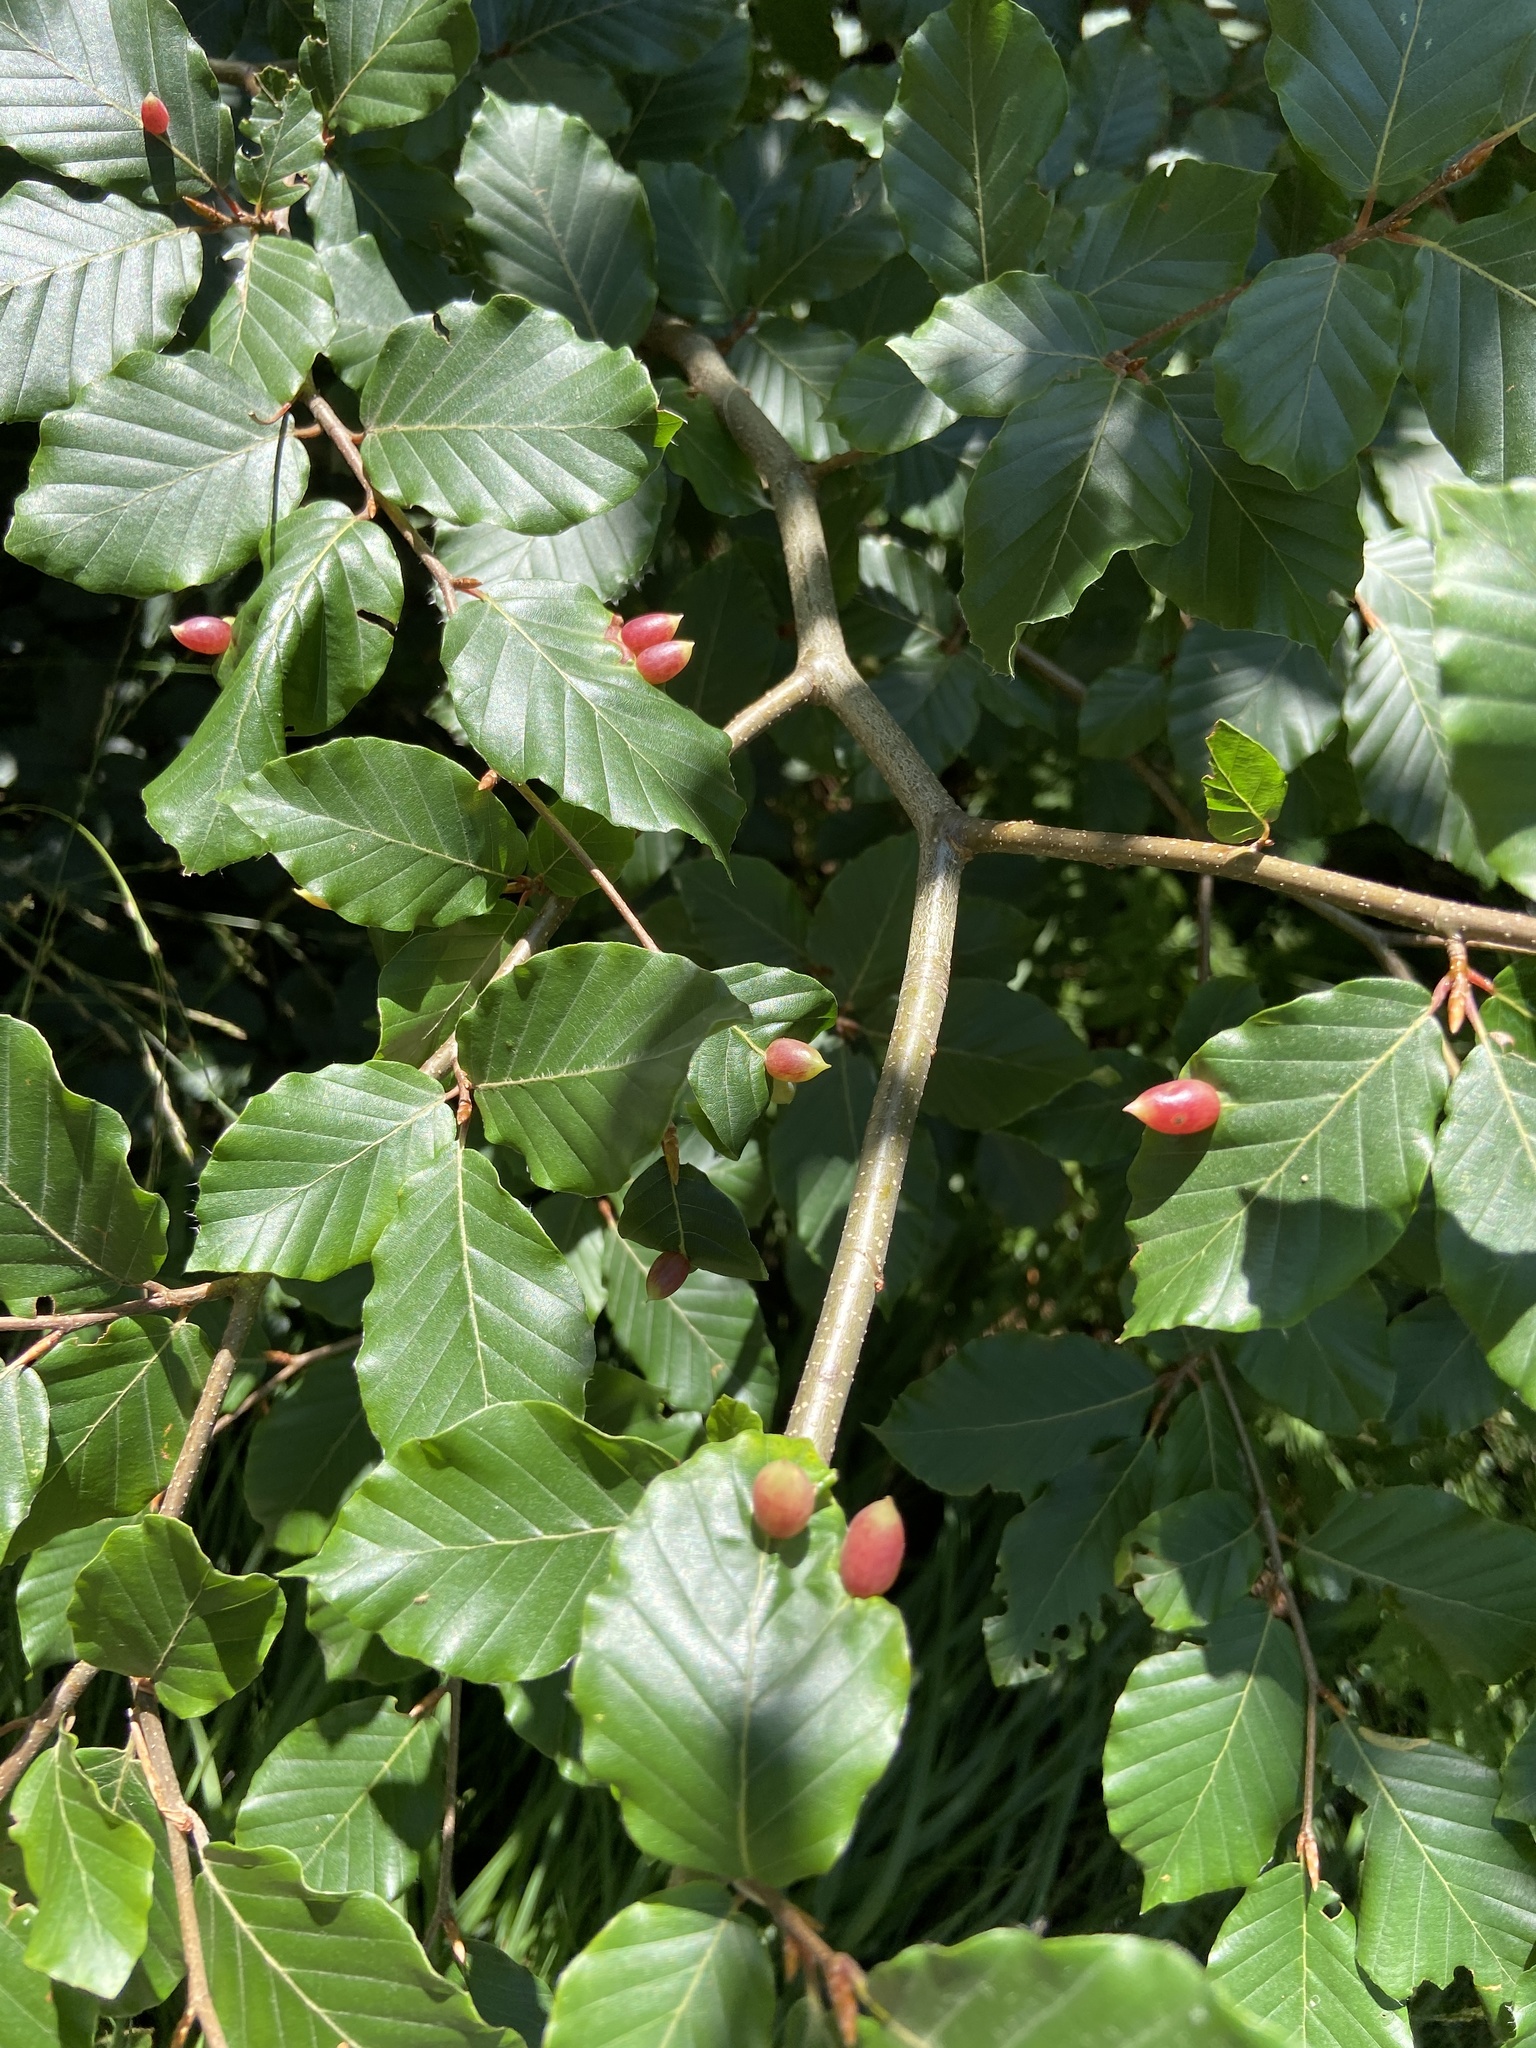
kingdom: Animalia
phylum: Arthropoda
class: Insecta
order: Diptera
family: Cecidomyiidae
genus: Mikiola
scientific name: Mikiola fagi
